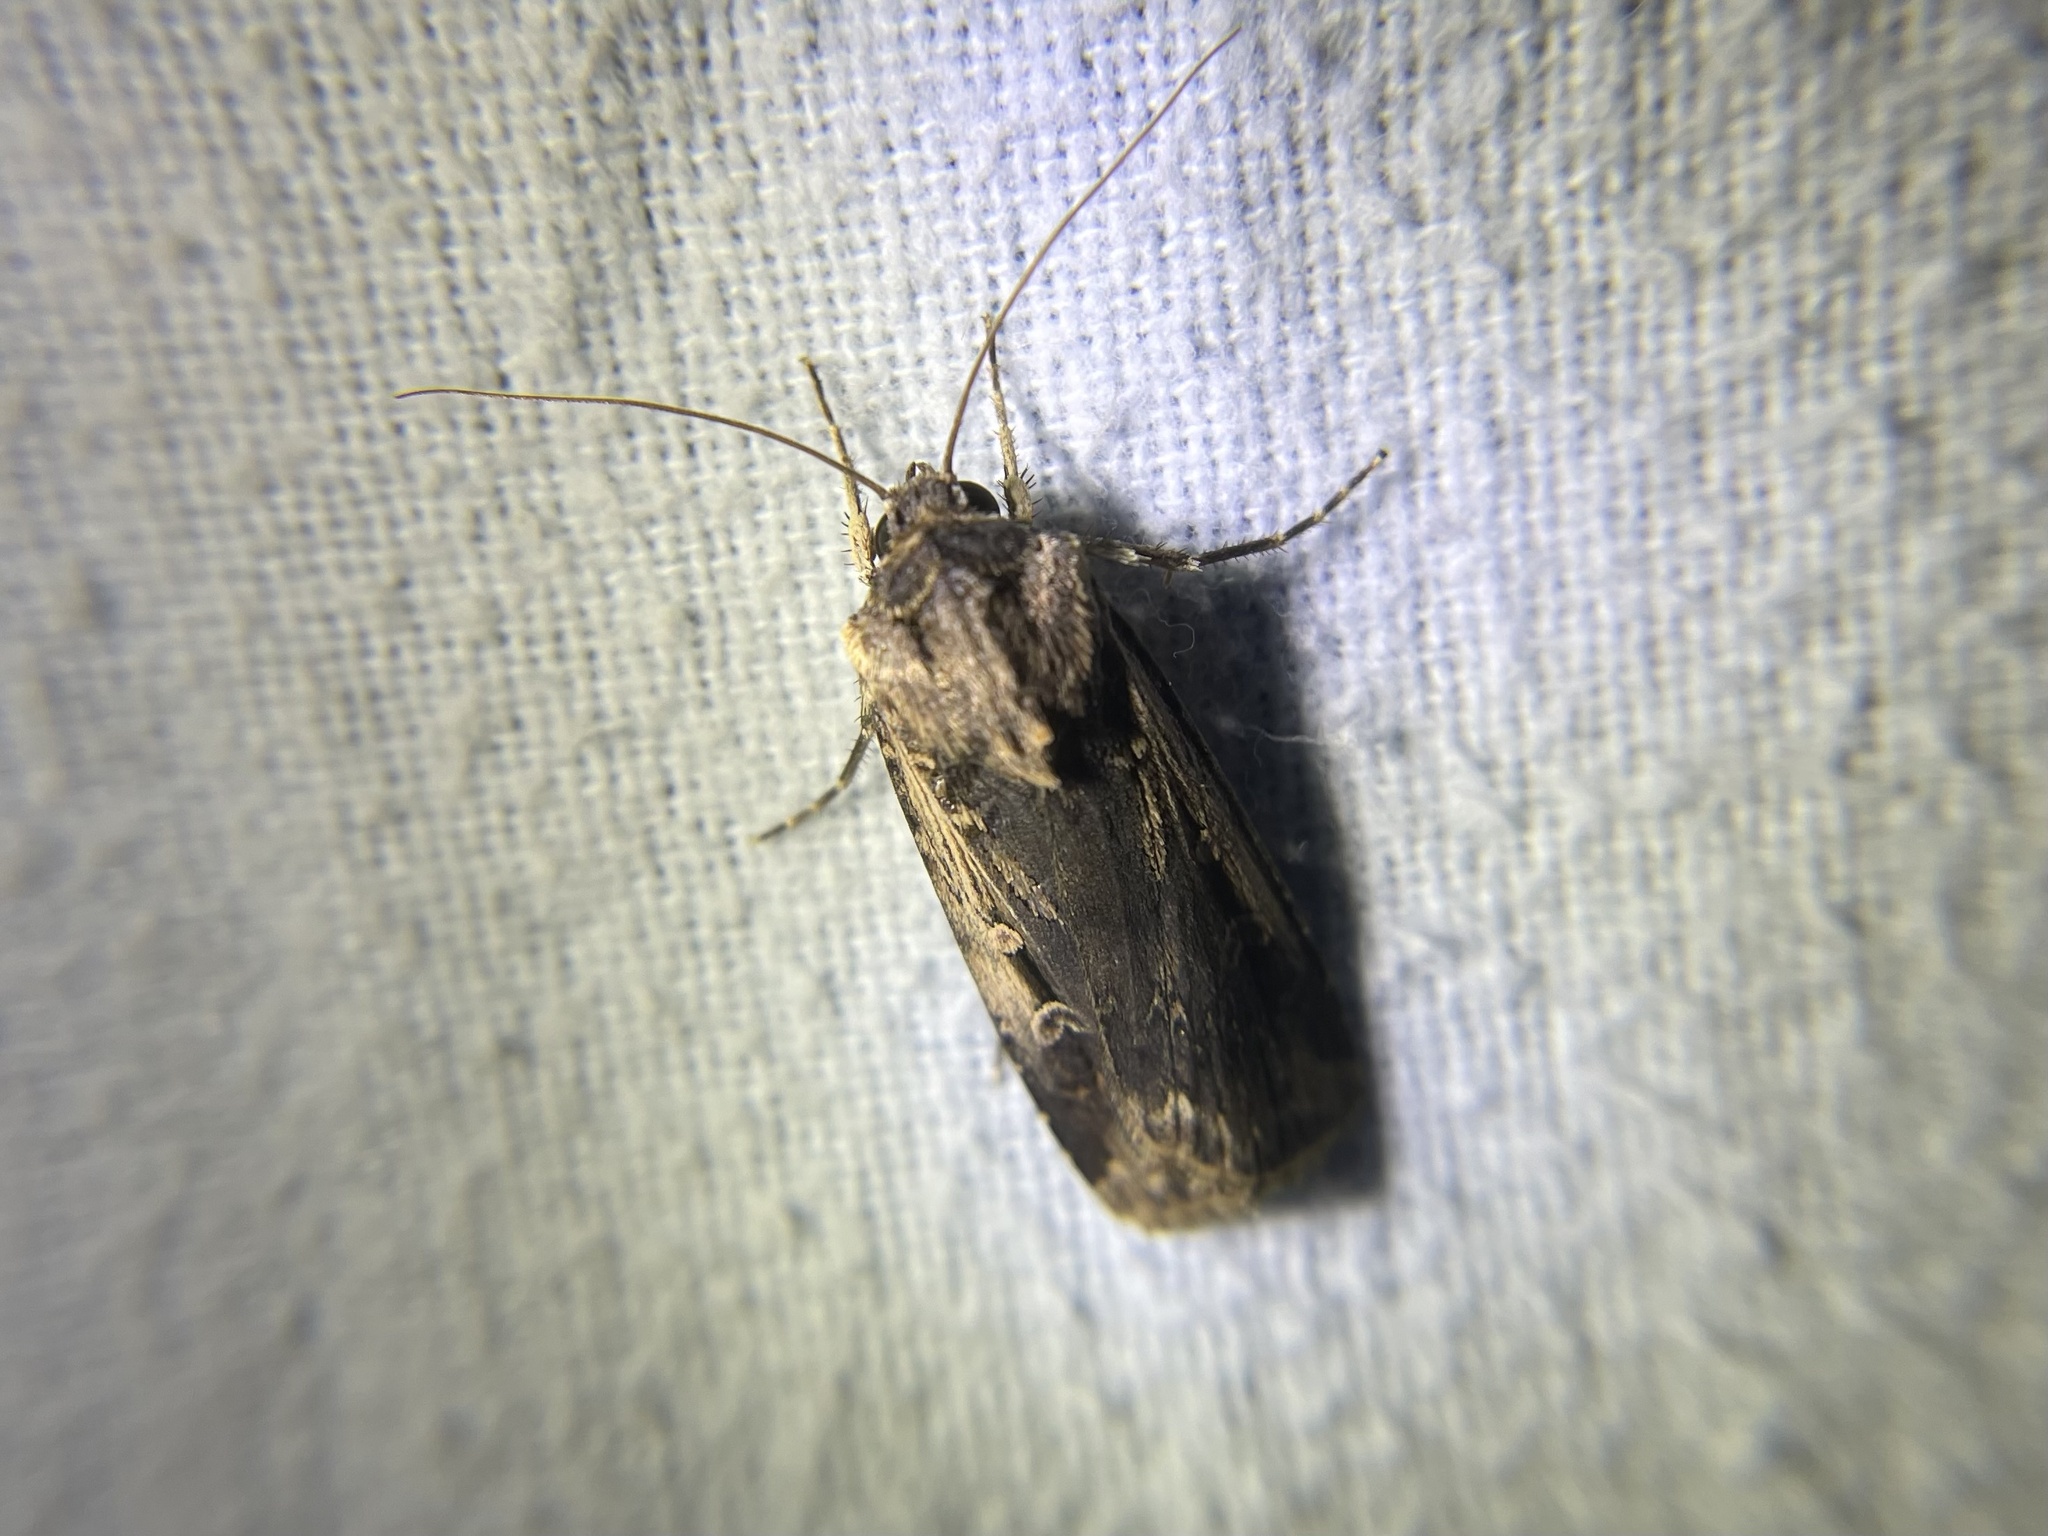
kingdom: Animalia
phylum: Arthropoda
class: Insecta
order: Lepidoptera
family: Noctuidae
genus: Feltia
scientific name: Feltia subterranea
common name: Granulate cutworm
